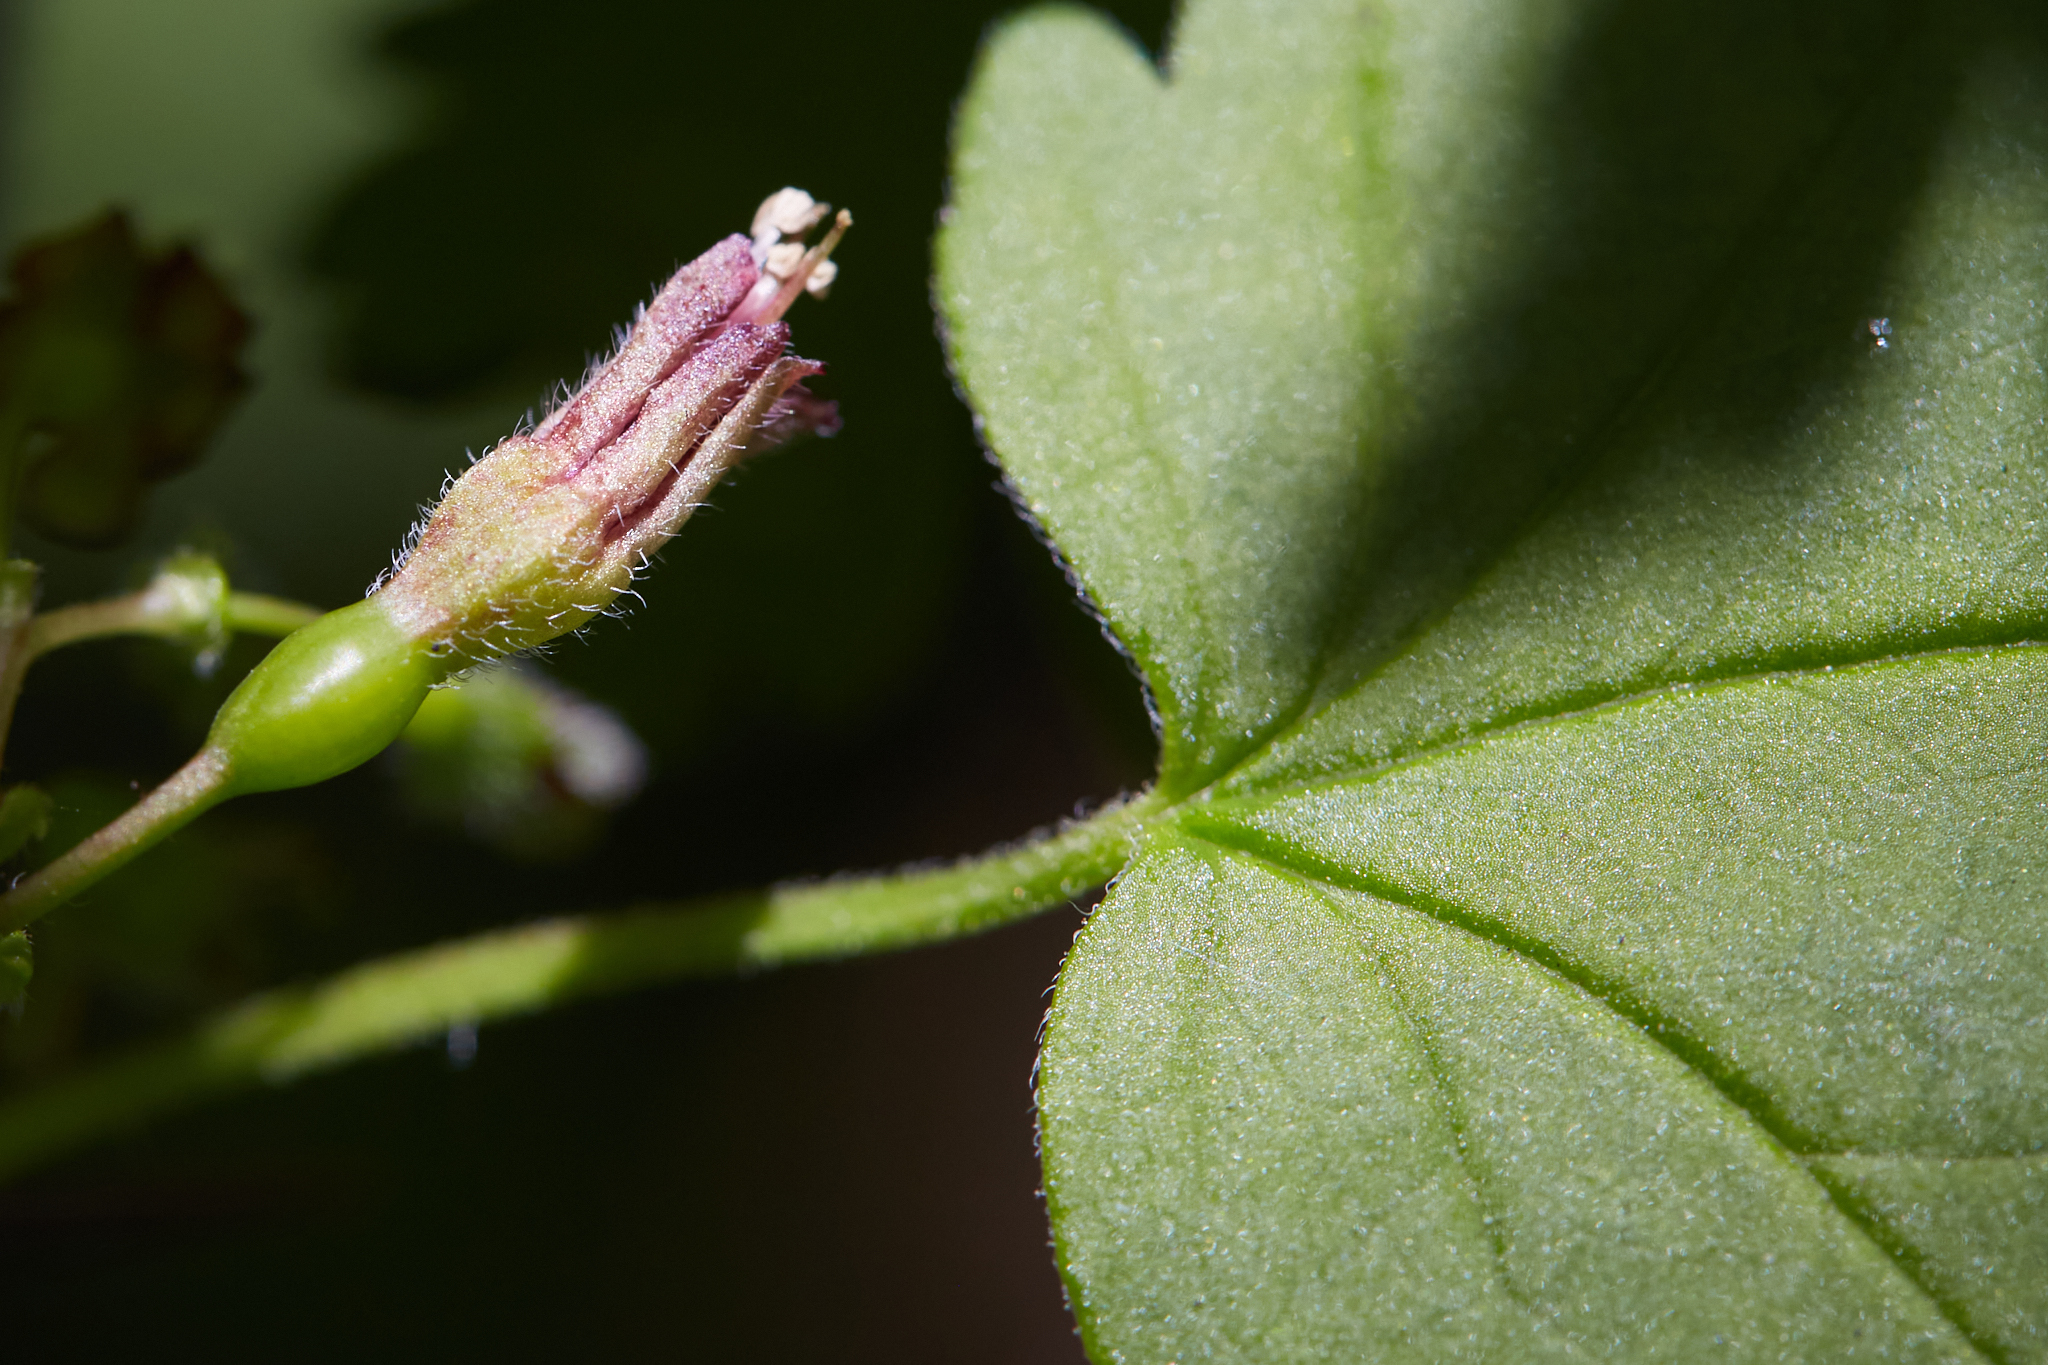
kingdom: Plantae
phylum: Tracheophyta
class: Magnoliopsida
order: Saxifragales
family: Grossulariaceae
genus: Ribes
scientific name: Ribes divaricatum
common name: Wild black gooseberry
